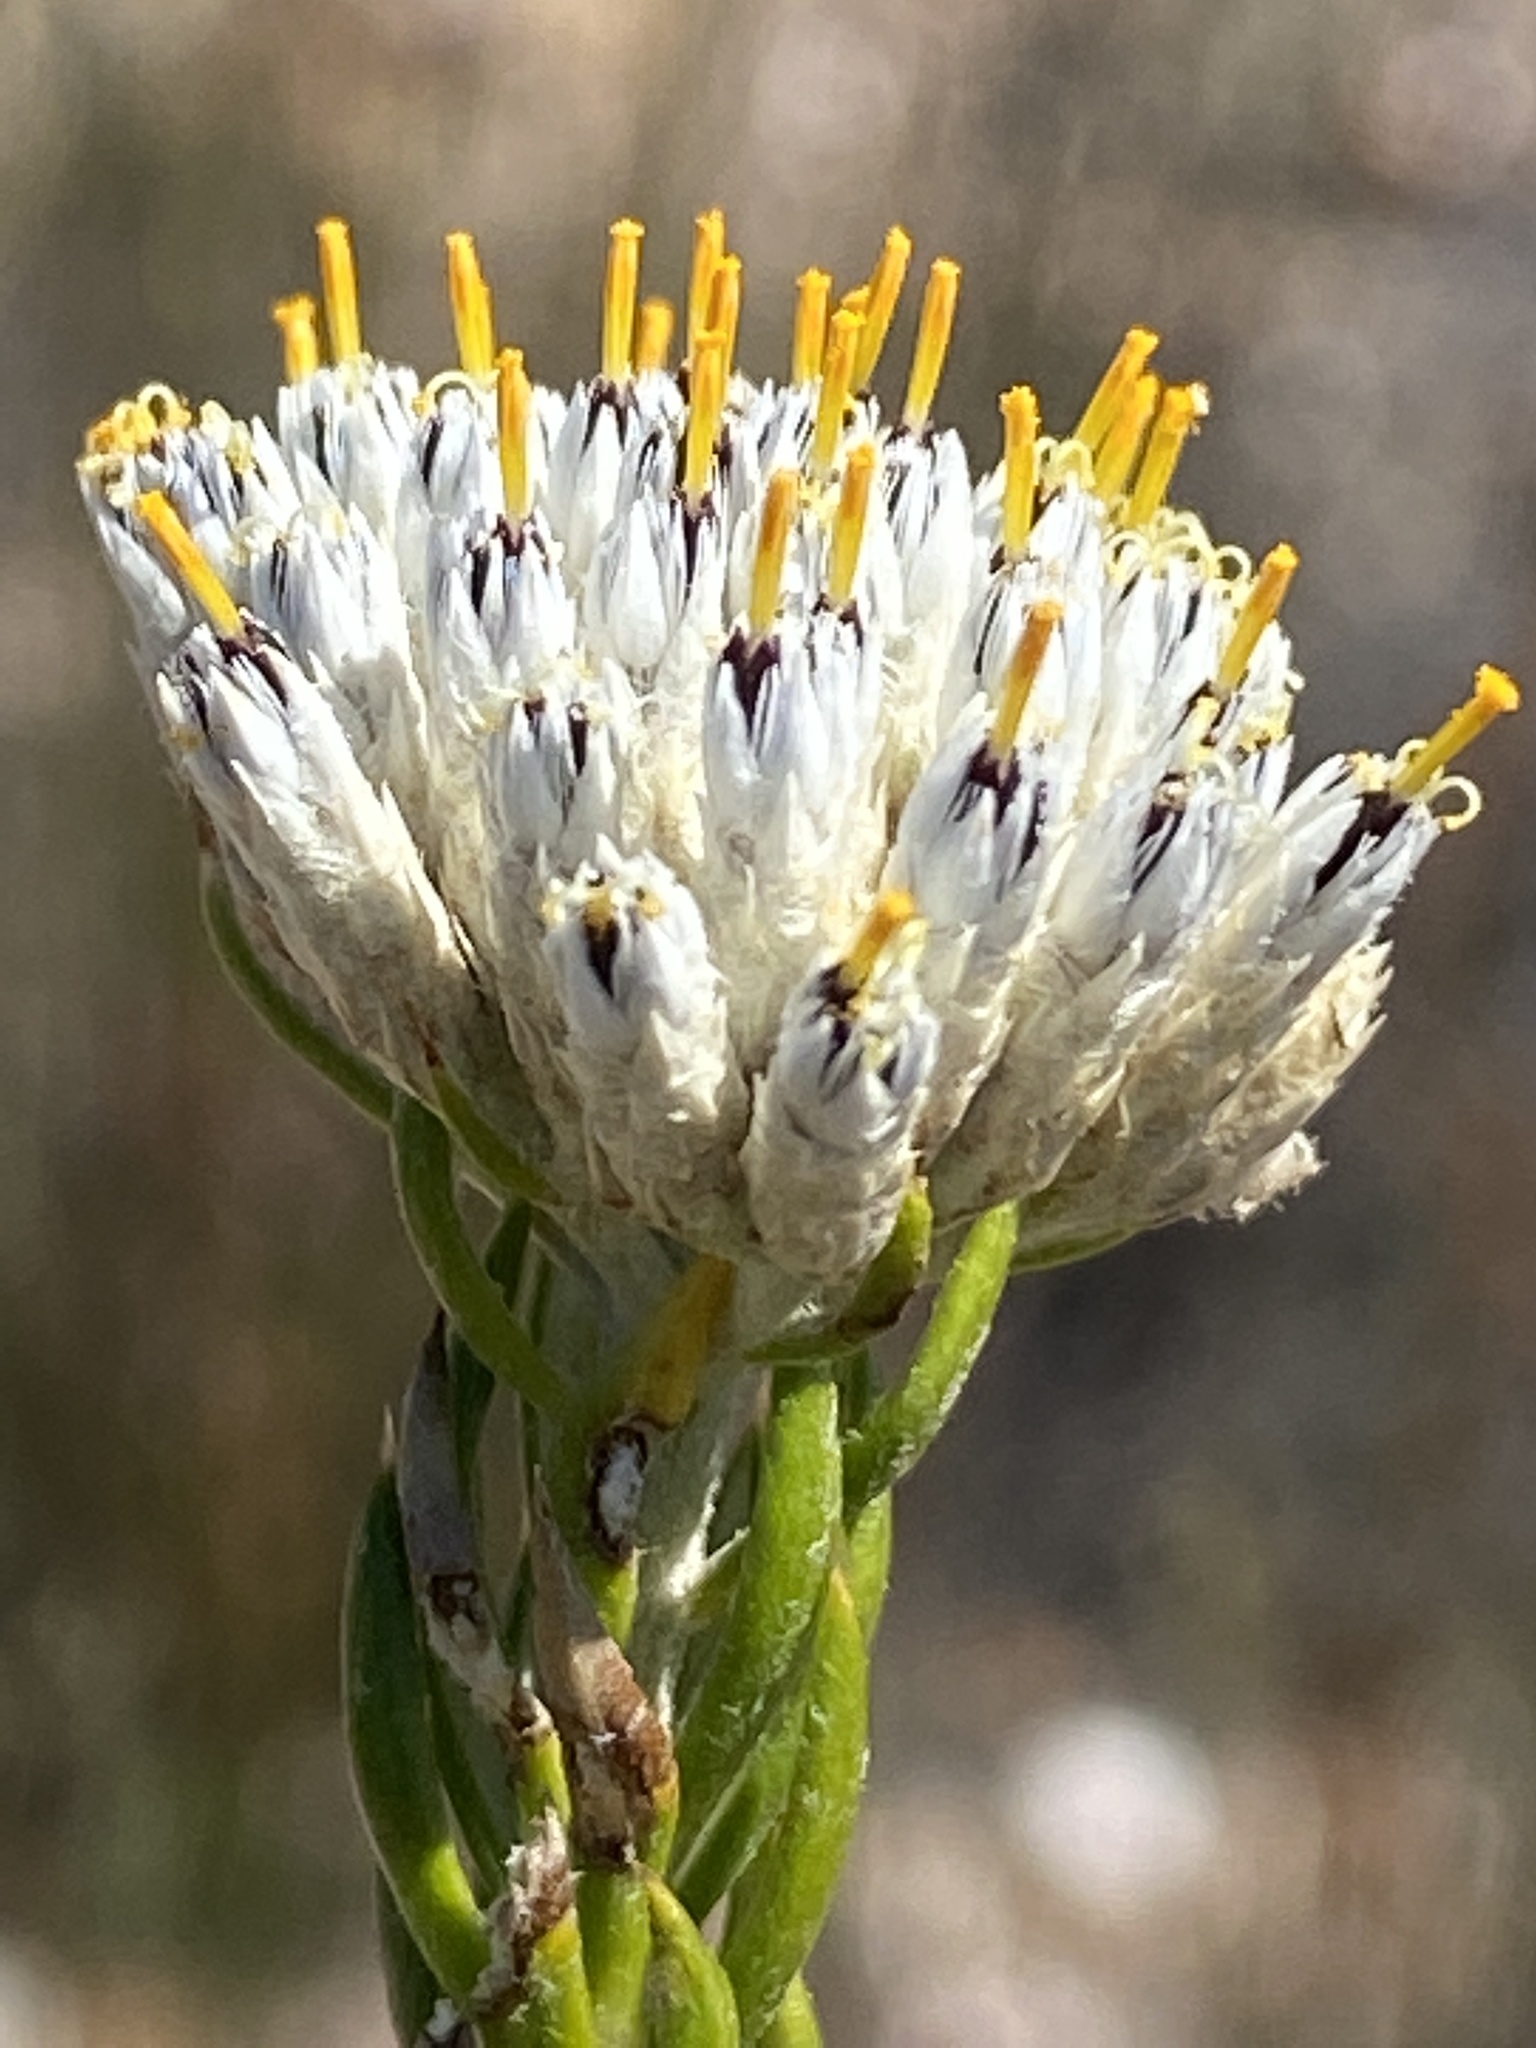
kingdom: Plantae
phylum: Tracheophyta
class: Magnoliopsida
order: Asterales
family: Asteraceae
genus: Metalasia
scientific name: Metalasia pulcherrima
